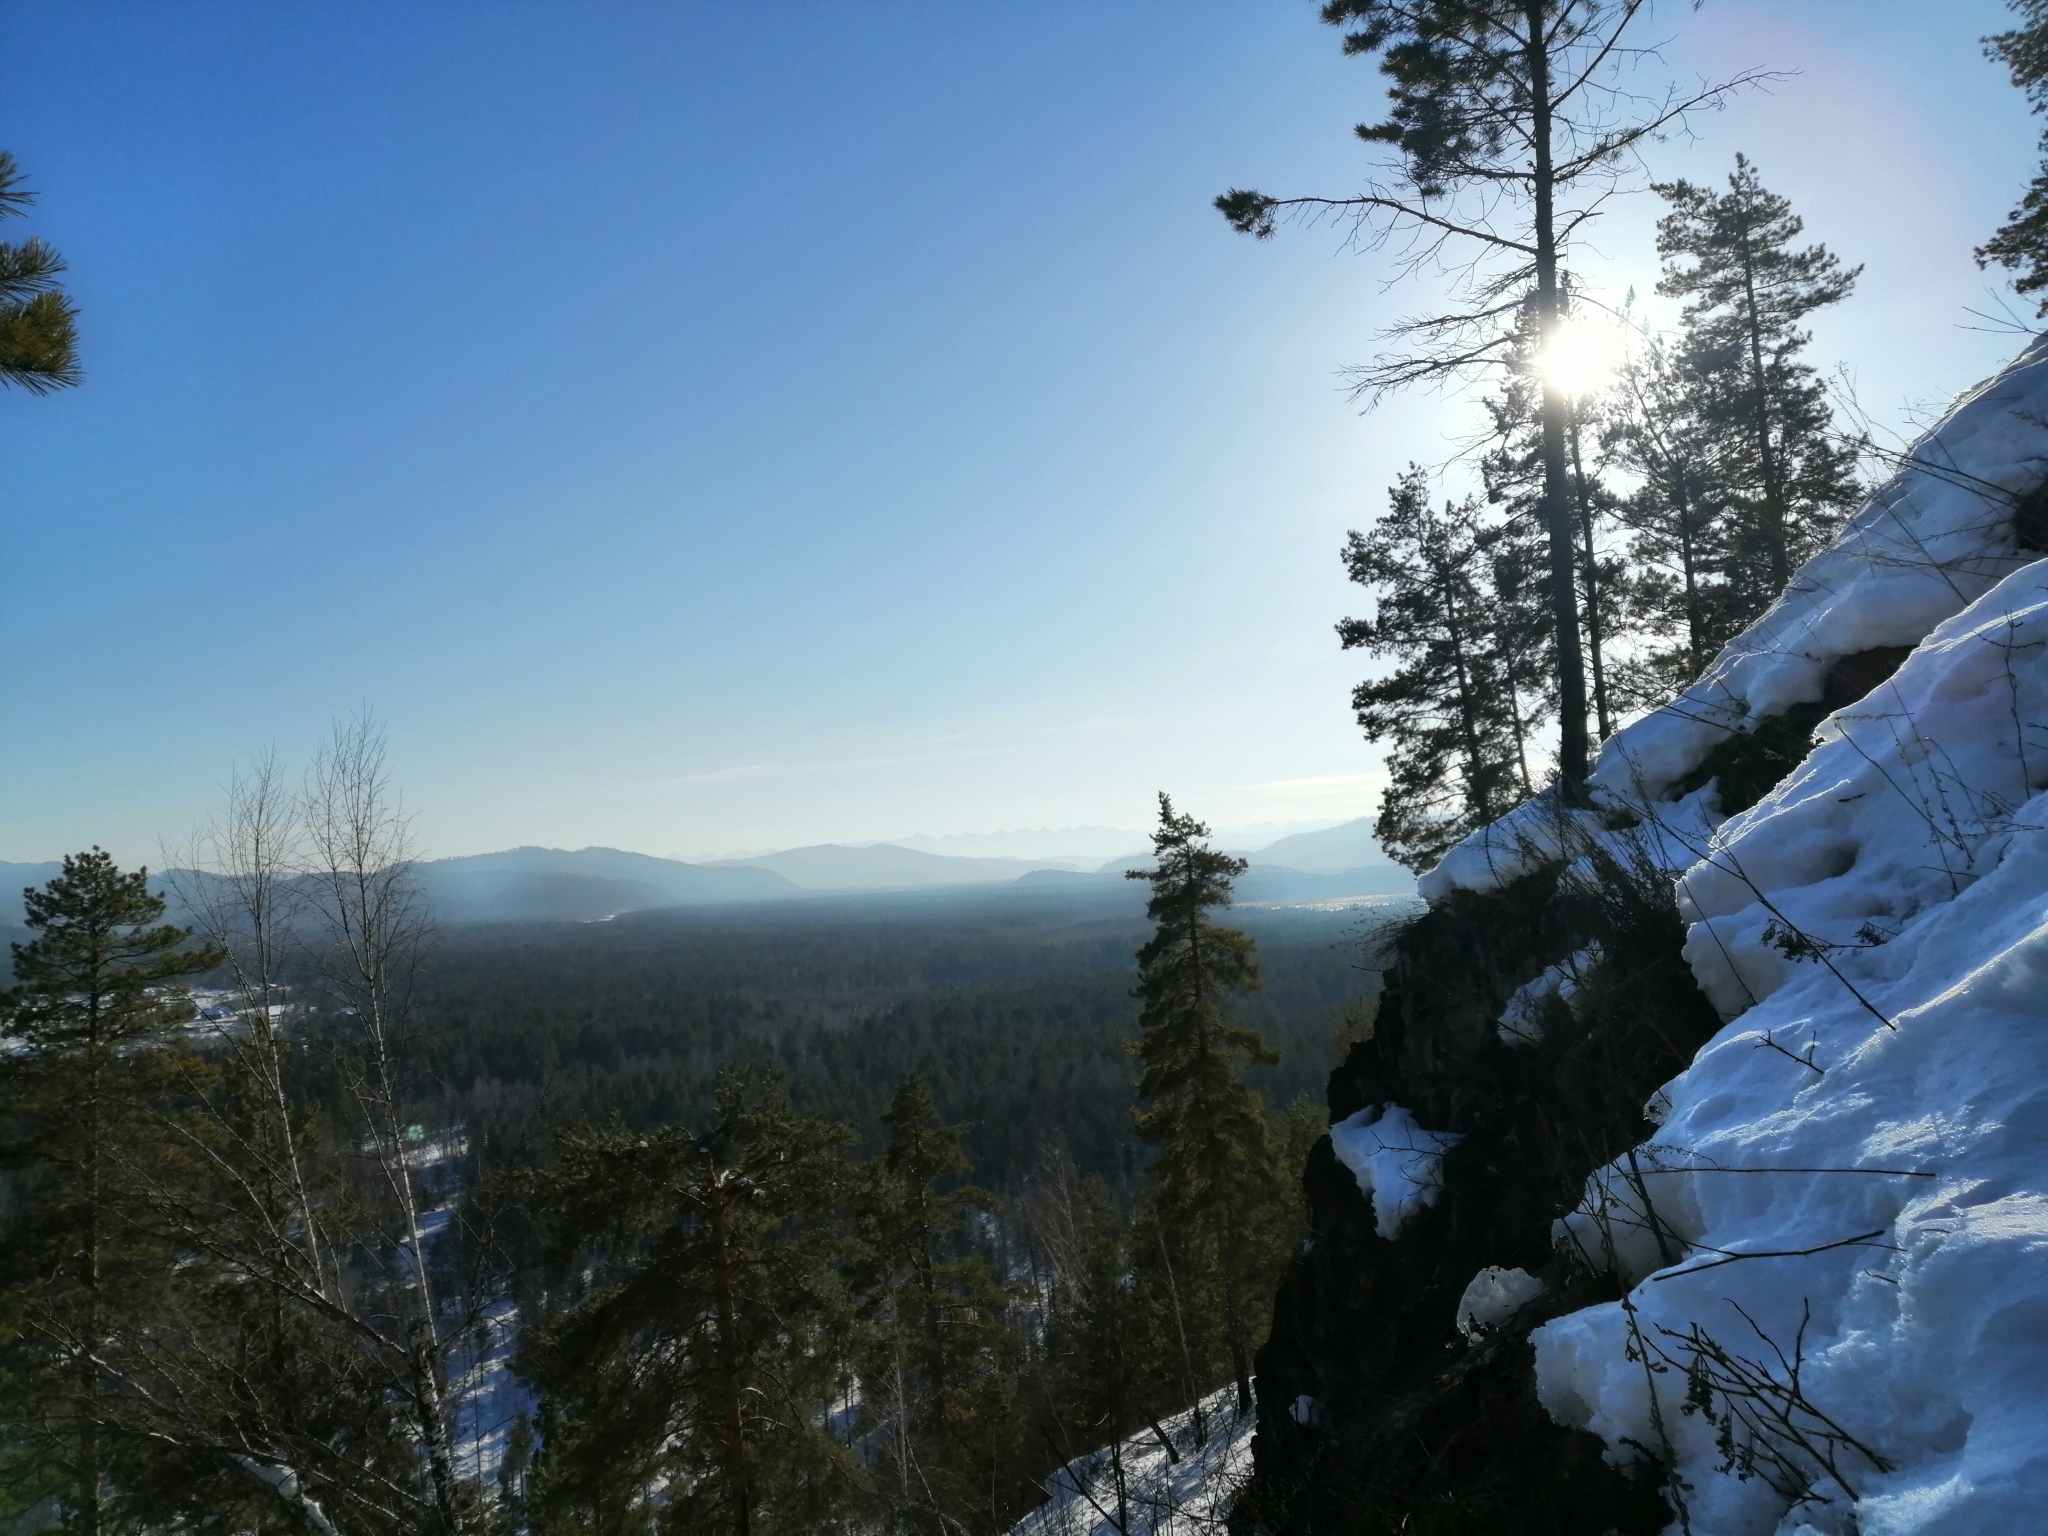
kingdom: Plantae
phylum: Tracheophyta
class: Pinopsida
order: Pinales
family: Pinaceae
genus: Pinus
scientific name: Pinus sibirica
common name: Siberian pine
